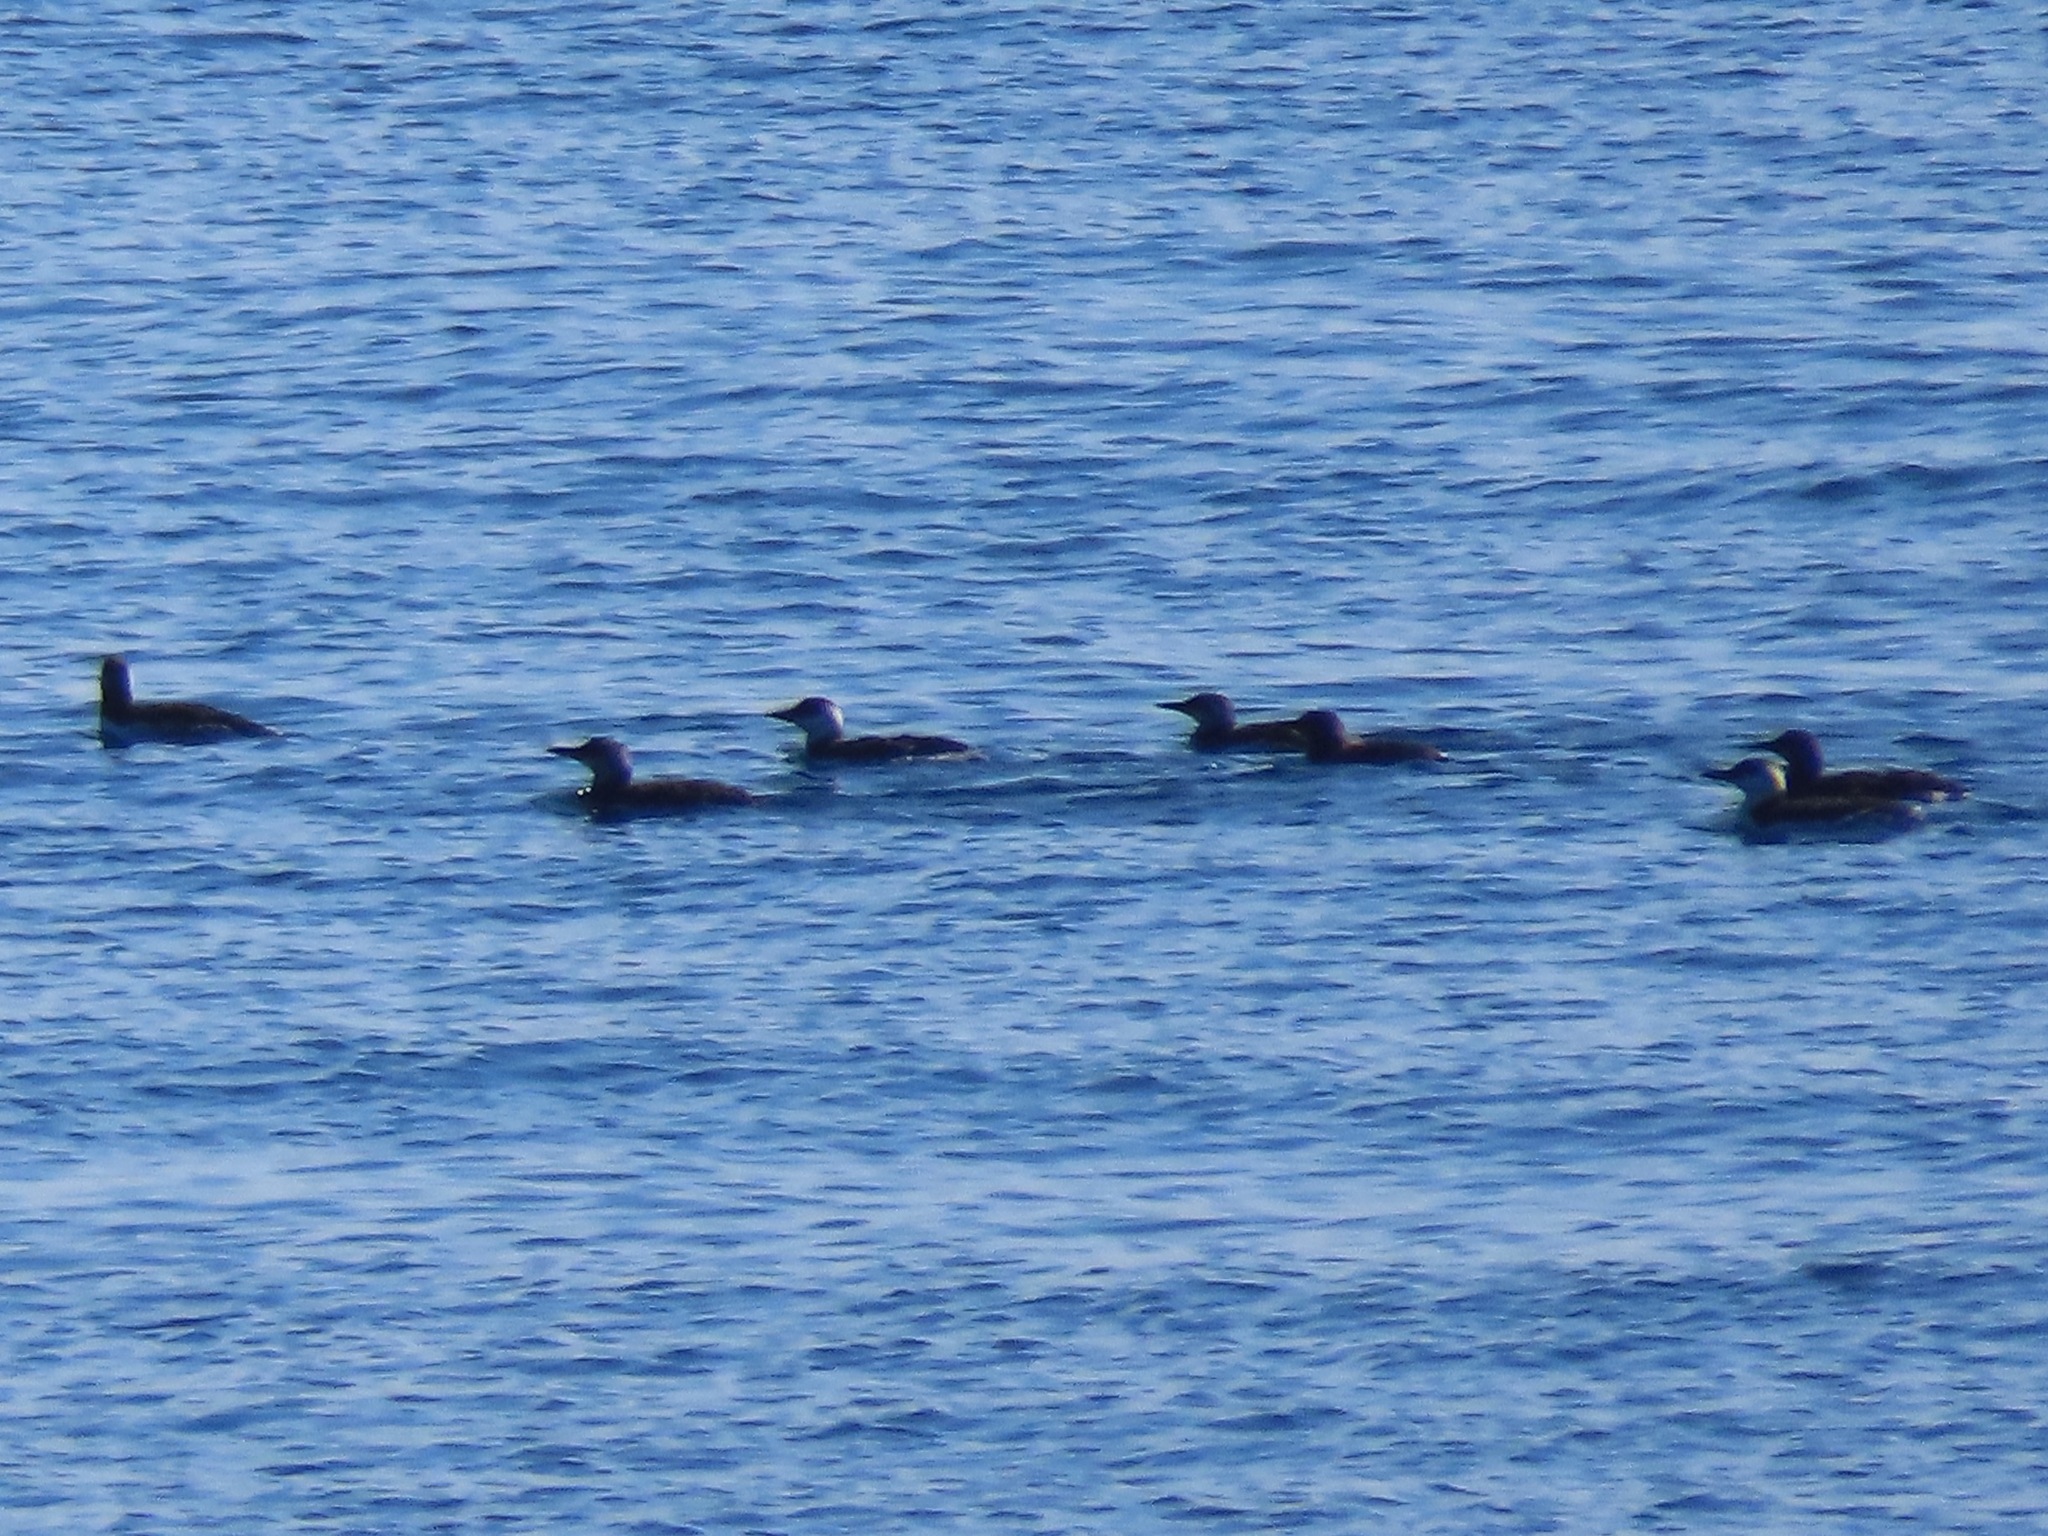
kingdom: Animalia
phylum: Chordata
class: Aves
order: Charadriiformes
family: Alcidae
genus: Uria
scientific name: Uria aalge
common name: Common murre
